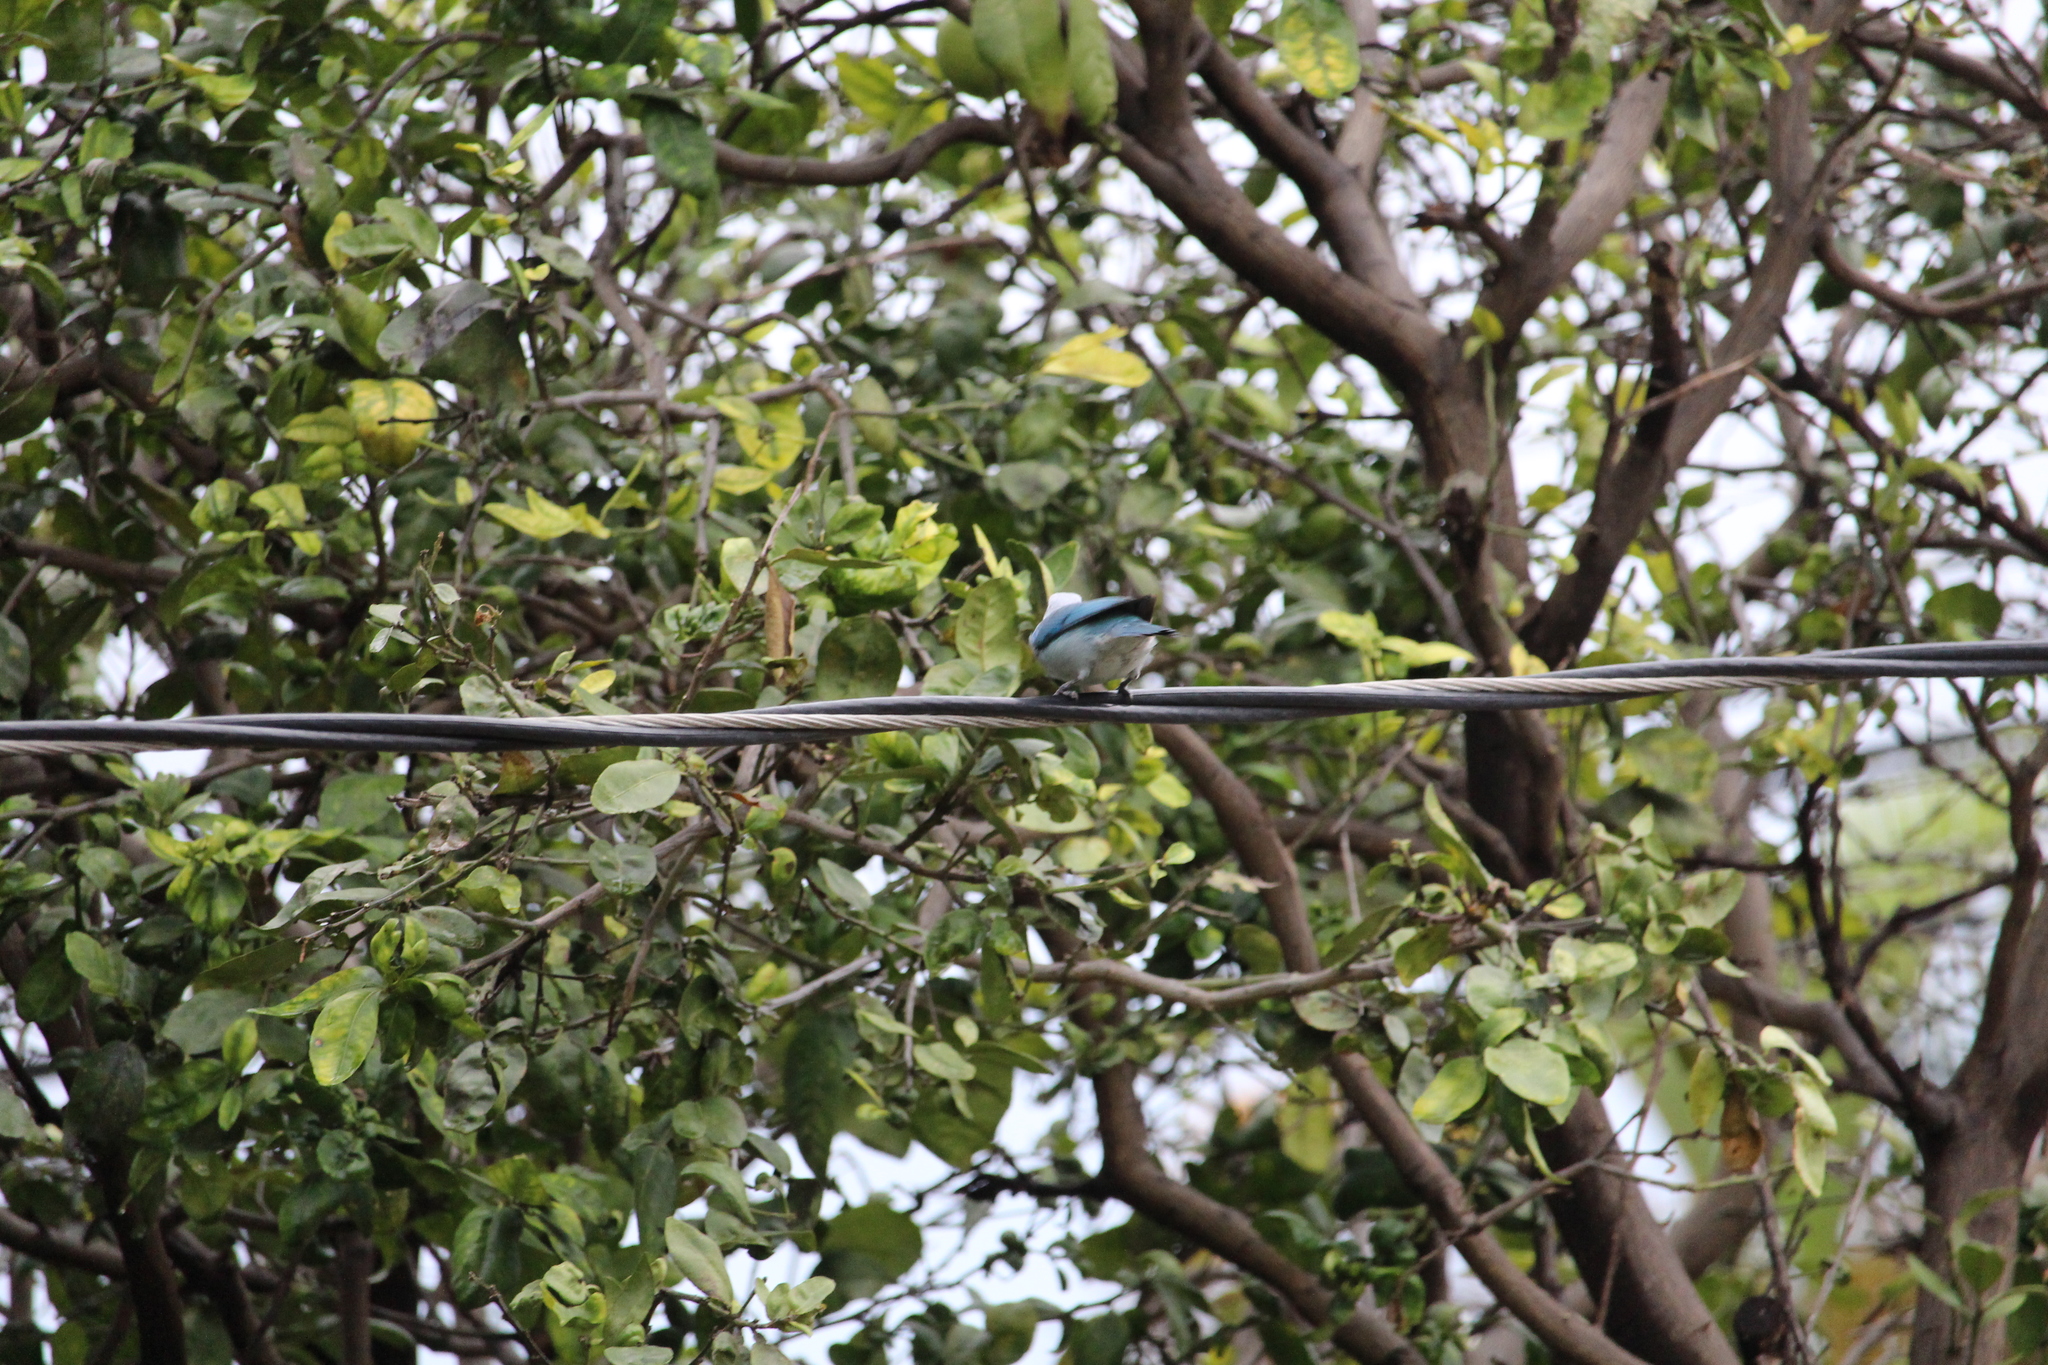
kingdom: Animalia
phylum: Chordata
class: Aves
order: Passeriformes
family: Thraupidae
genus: Thraupis
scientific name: Thraupis episcopus
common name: Blue-grey tanager
